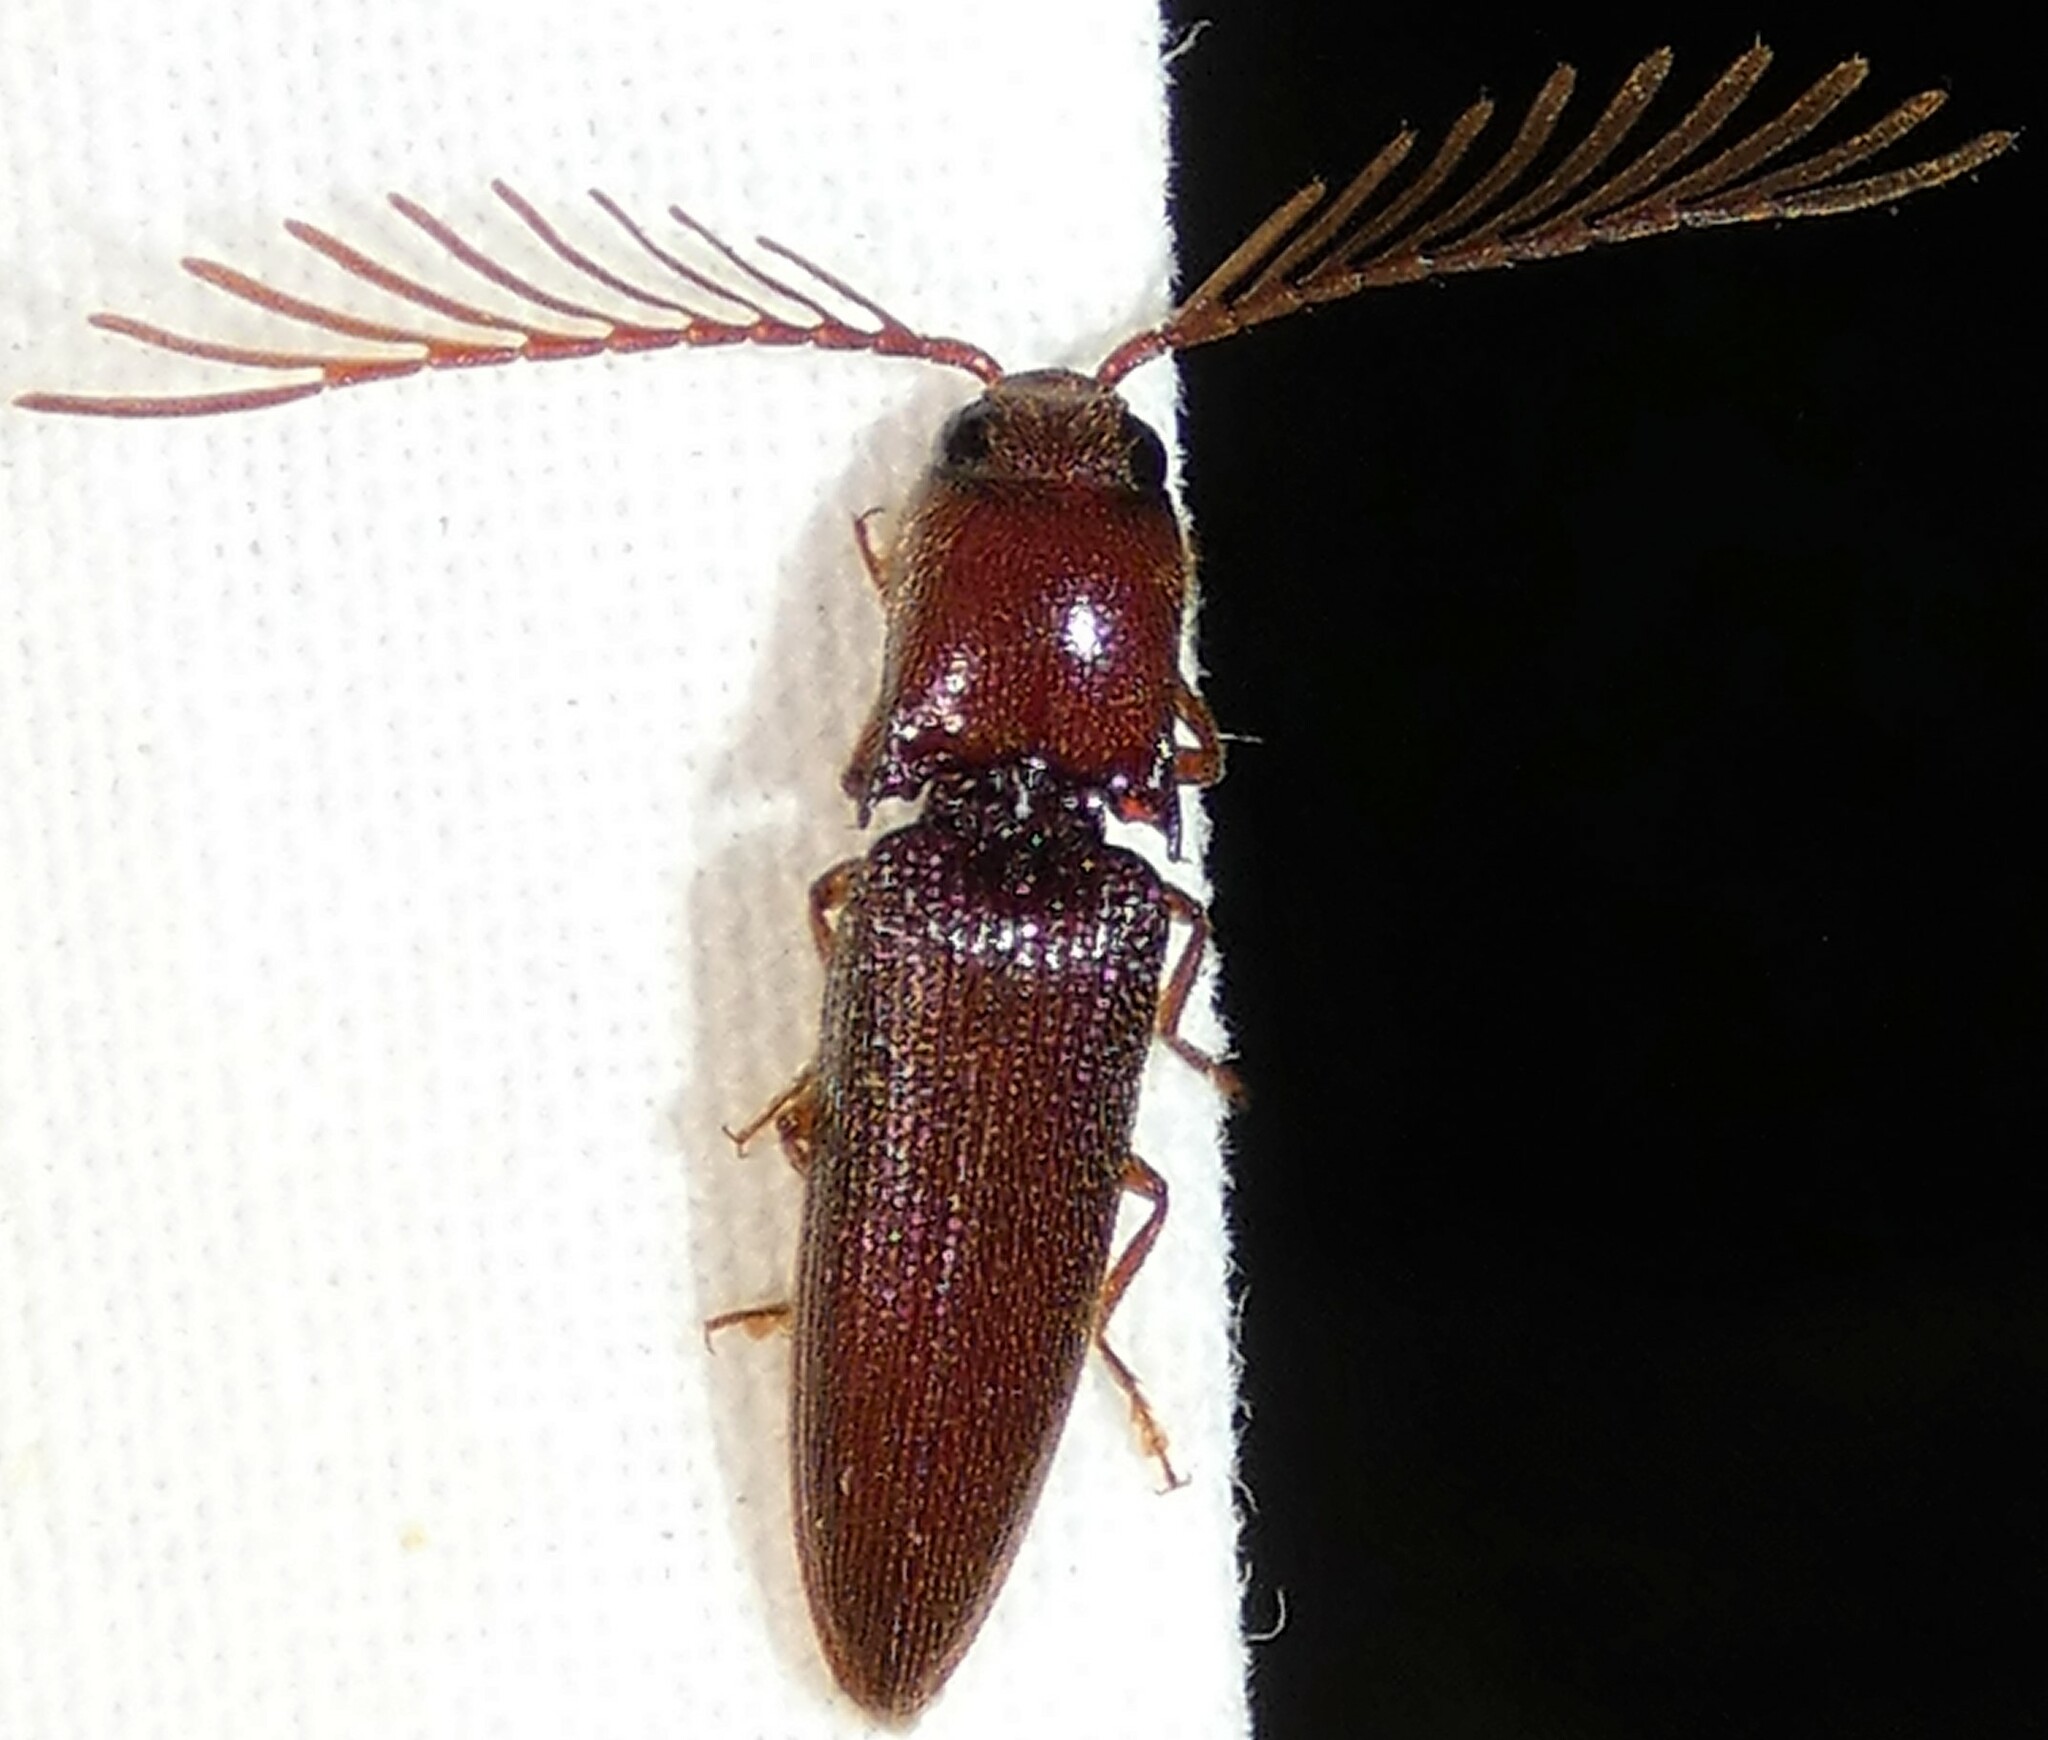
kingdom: Animalia
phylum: Arthropoda
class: Insecta
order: Coleoptera
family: Elateridae
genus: Dicrepidius
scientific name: Dicrepidius palmatus
